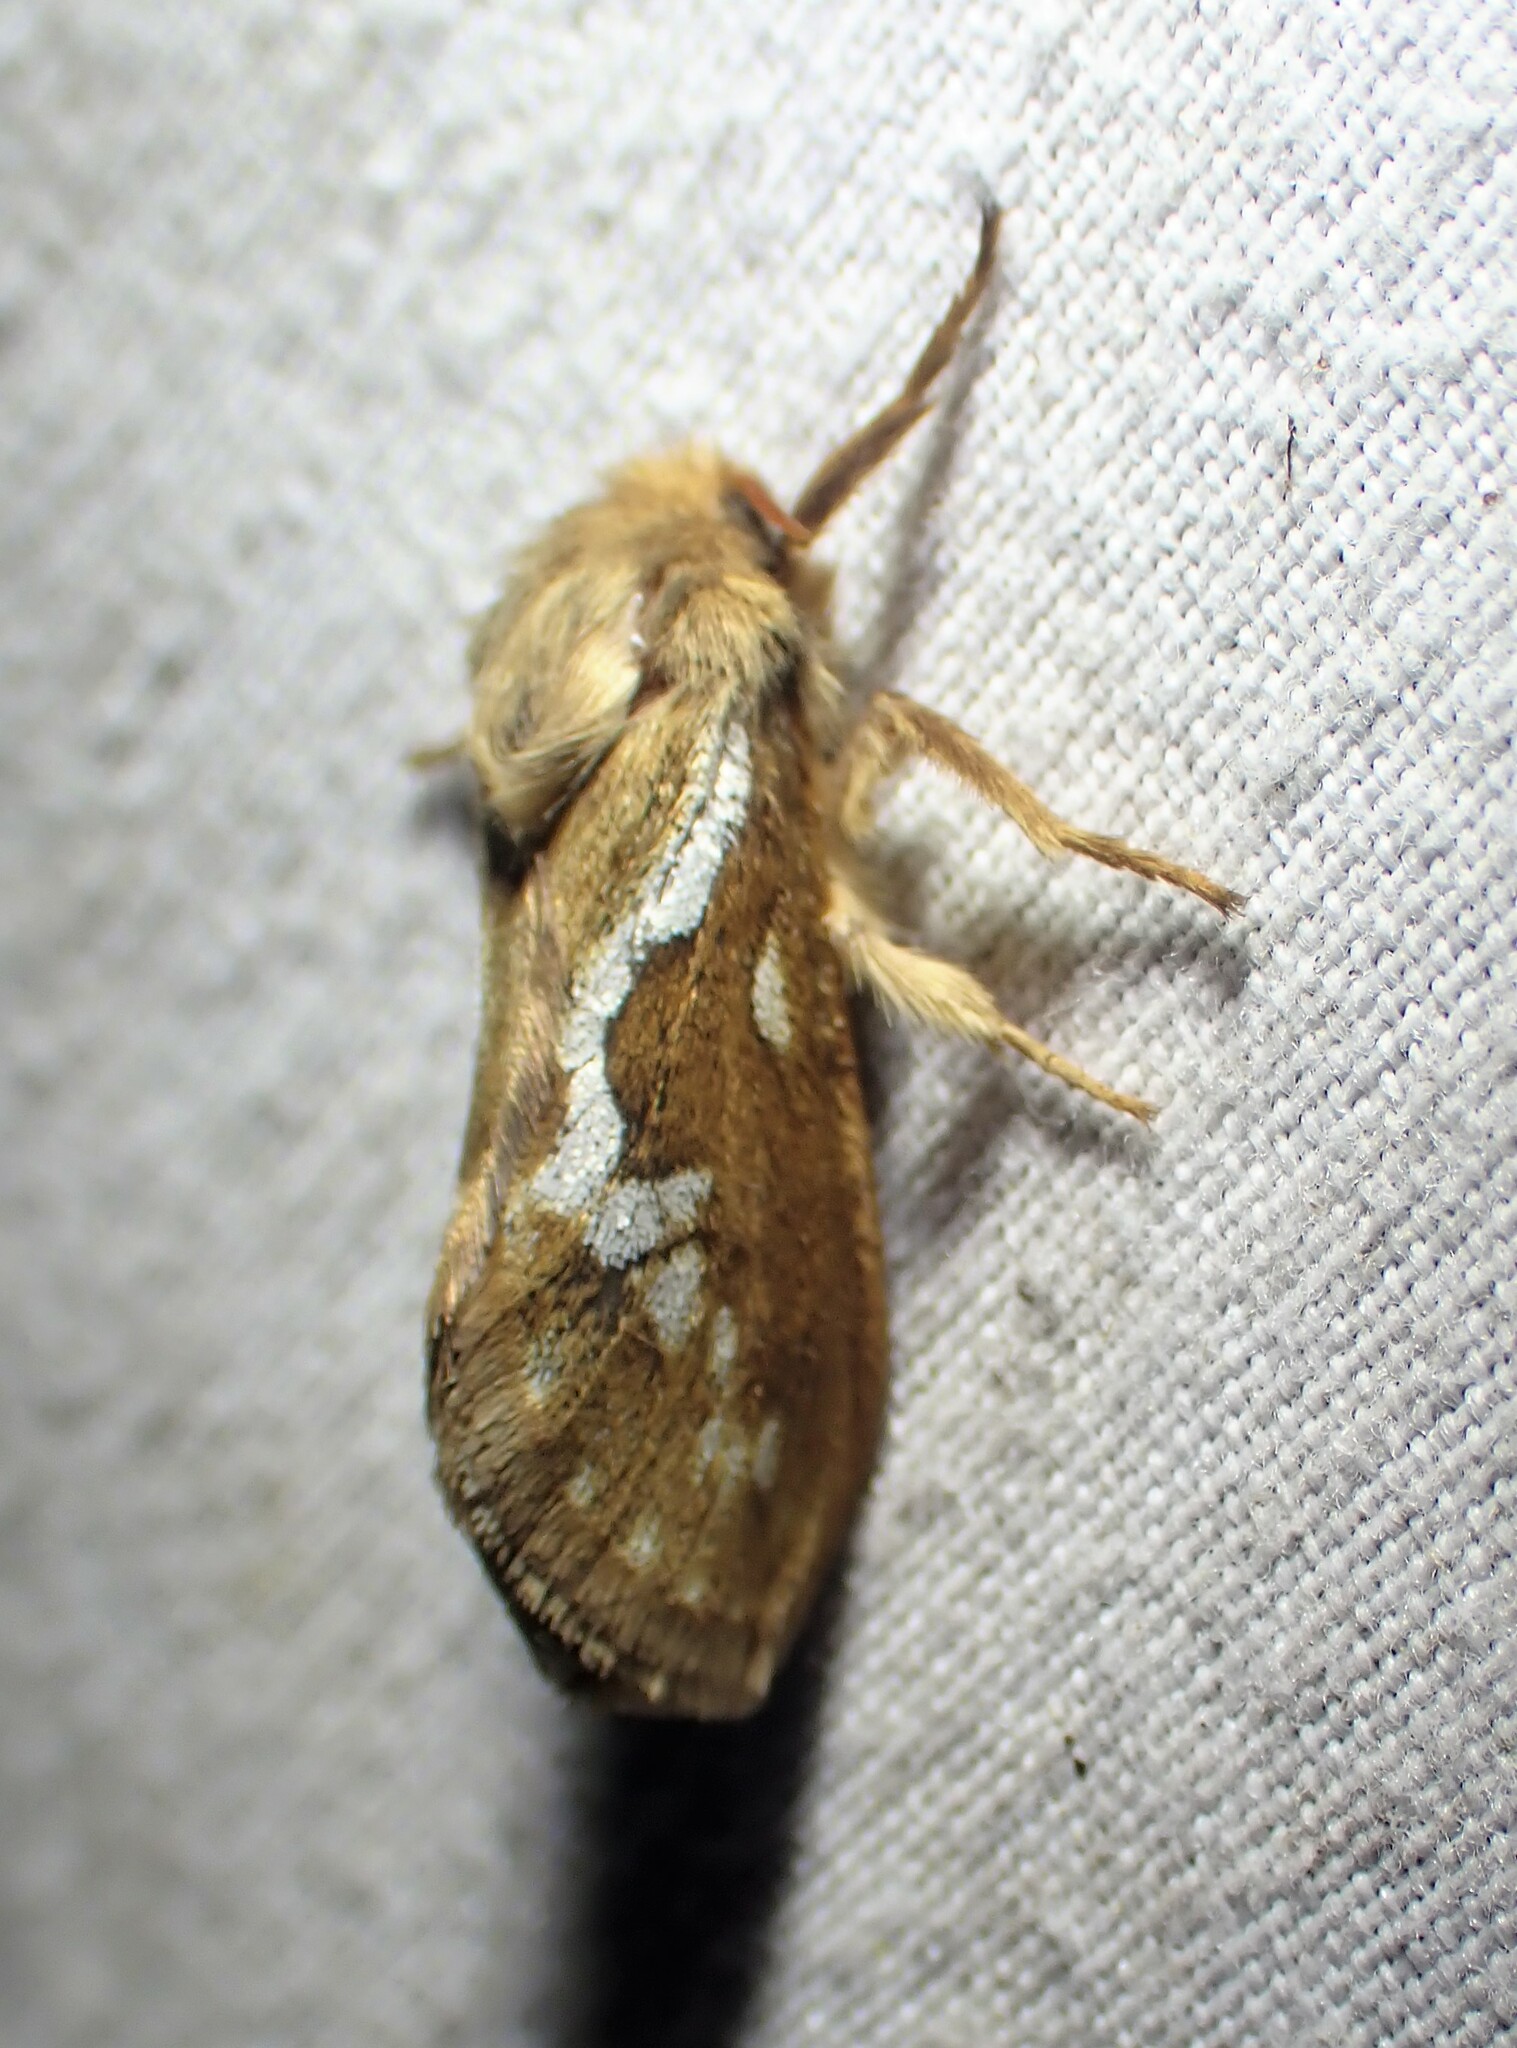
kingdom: Animalia
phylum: Arthropoda
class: Insecta
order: Lepidoptera
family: Hepialidae
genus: Korscheltellus
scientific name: Korscheltellus lupulina
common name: Common swift
